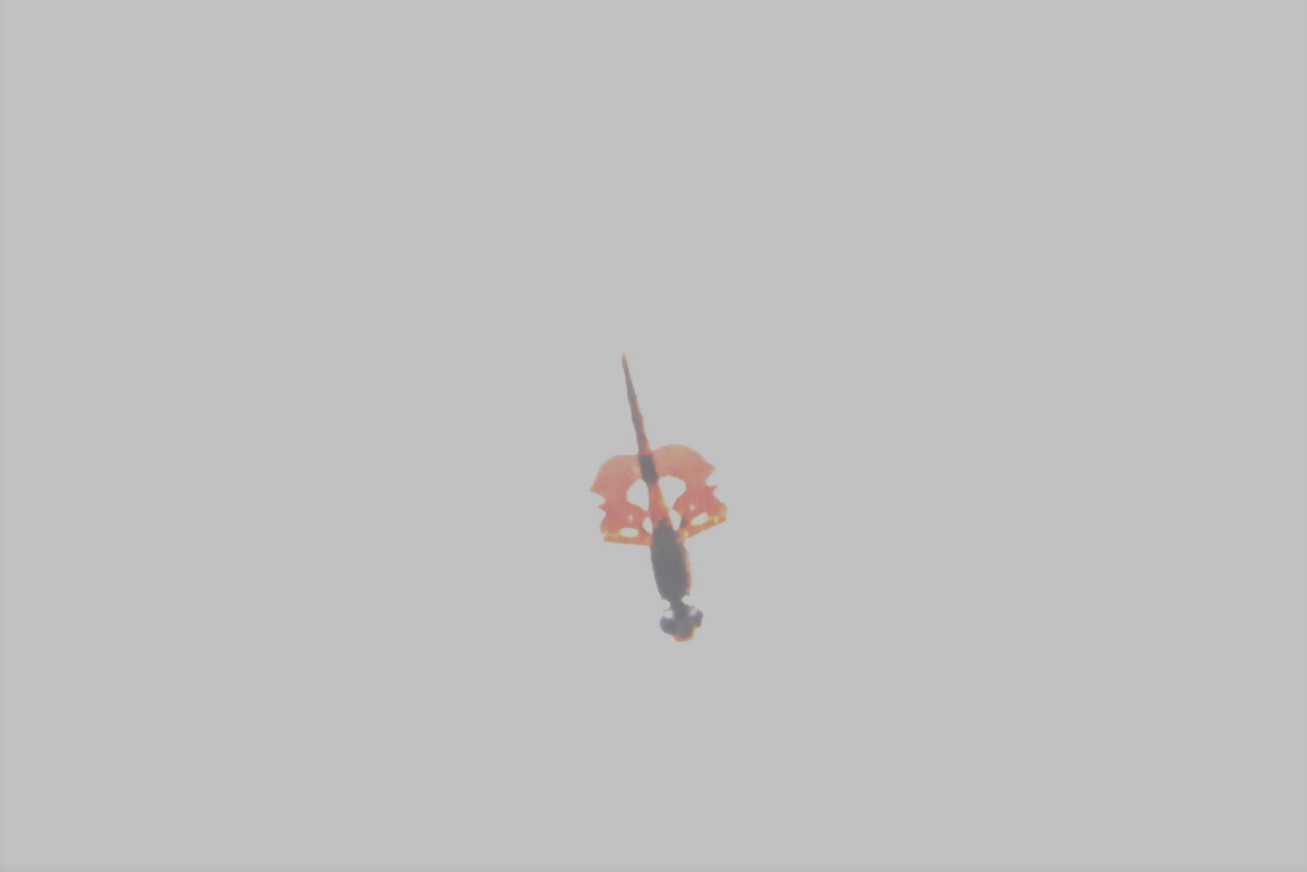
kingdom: Animalia
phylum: Arthropoda
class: Insecta
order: Odonata
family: Libellulidae
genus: Tramea
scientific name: Tramea onusta
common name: Red saddlebags
